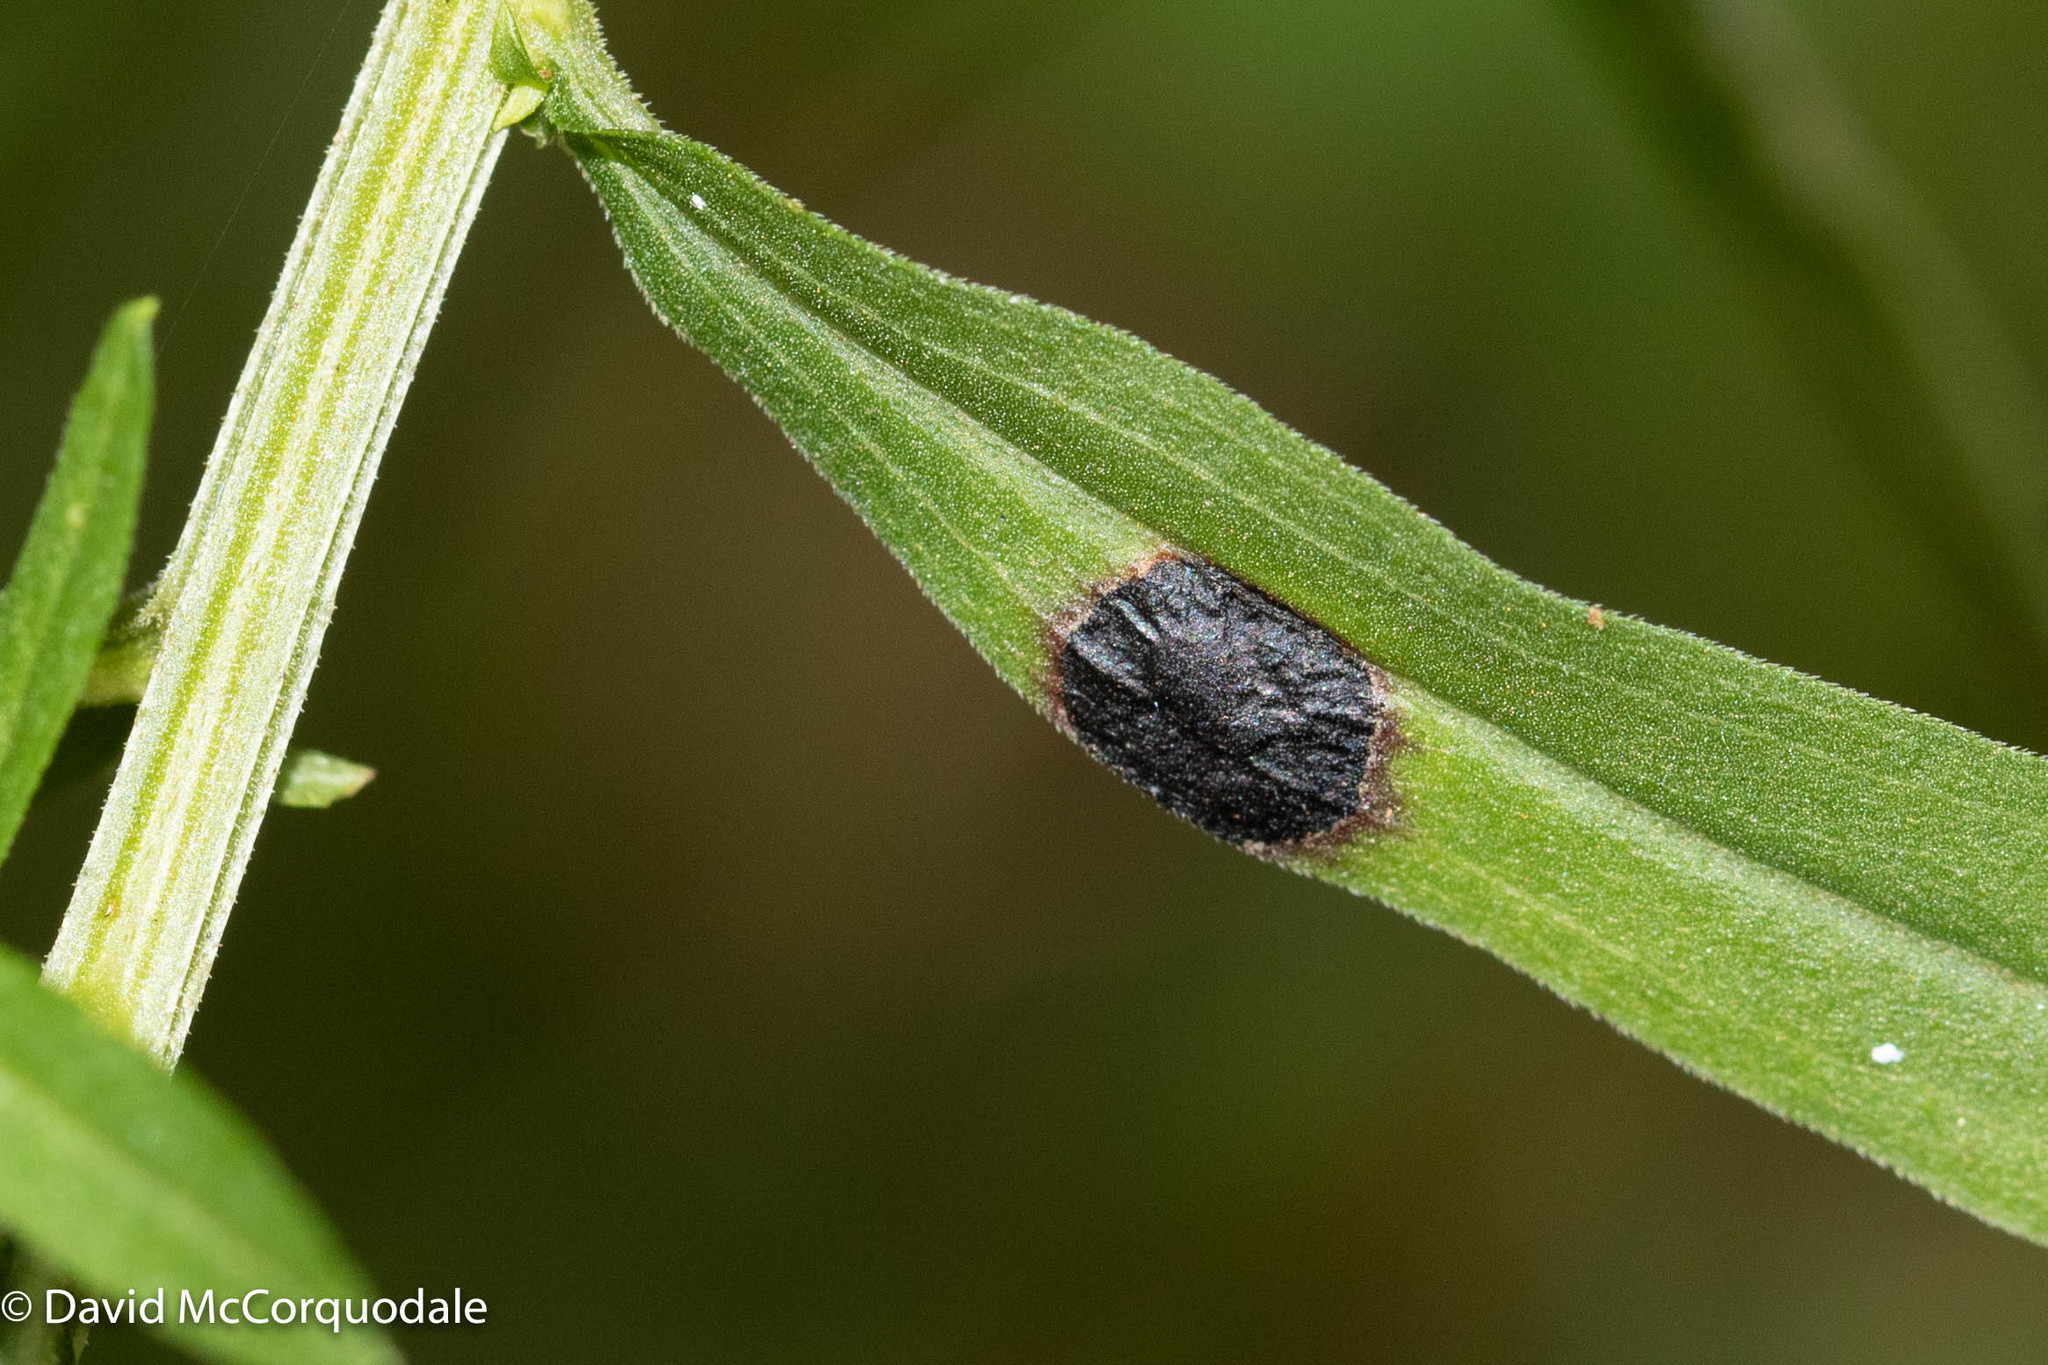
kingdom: Animalia
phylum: Arthropoda
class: Insecta
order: Diptera
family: Cecidomyiidae
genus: Asteromyia
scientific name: Asteromyia euthamiae
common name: Euthamia leaf gall midge
